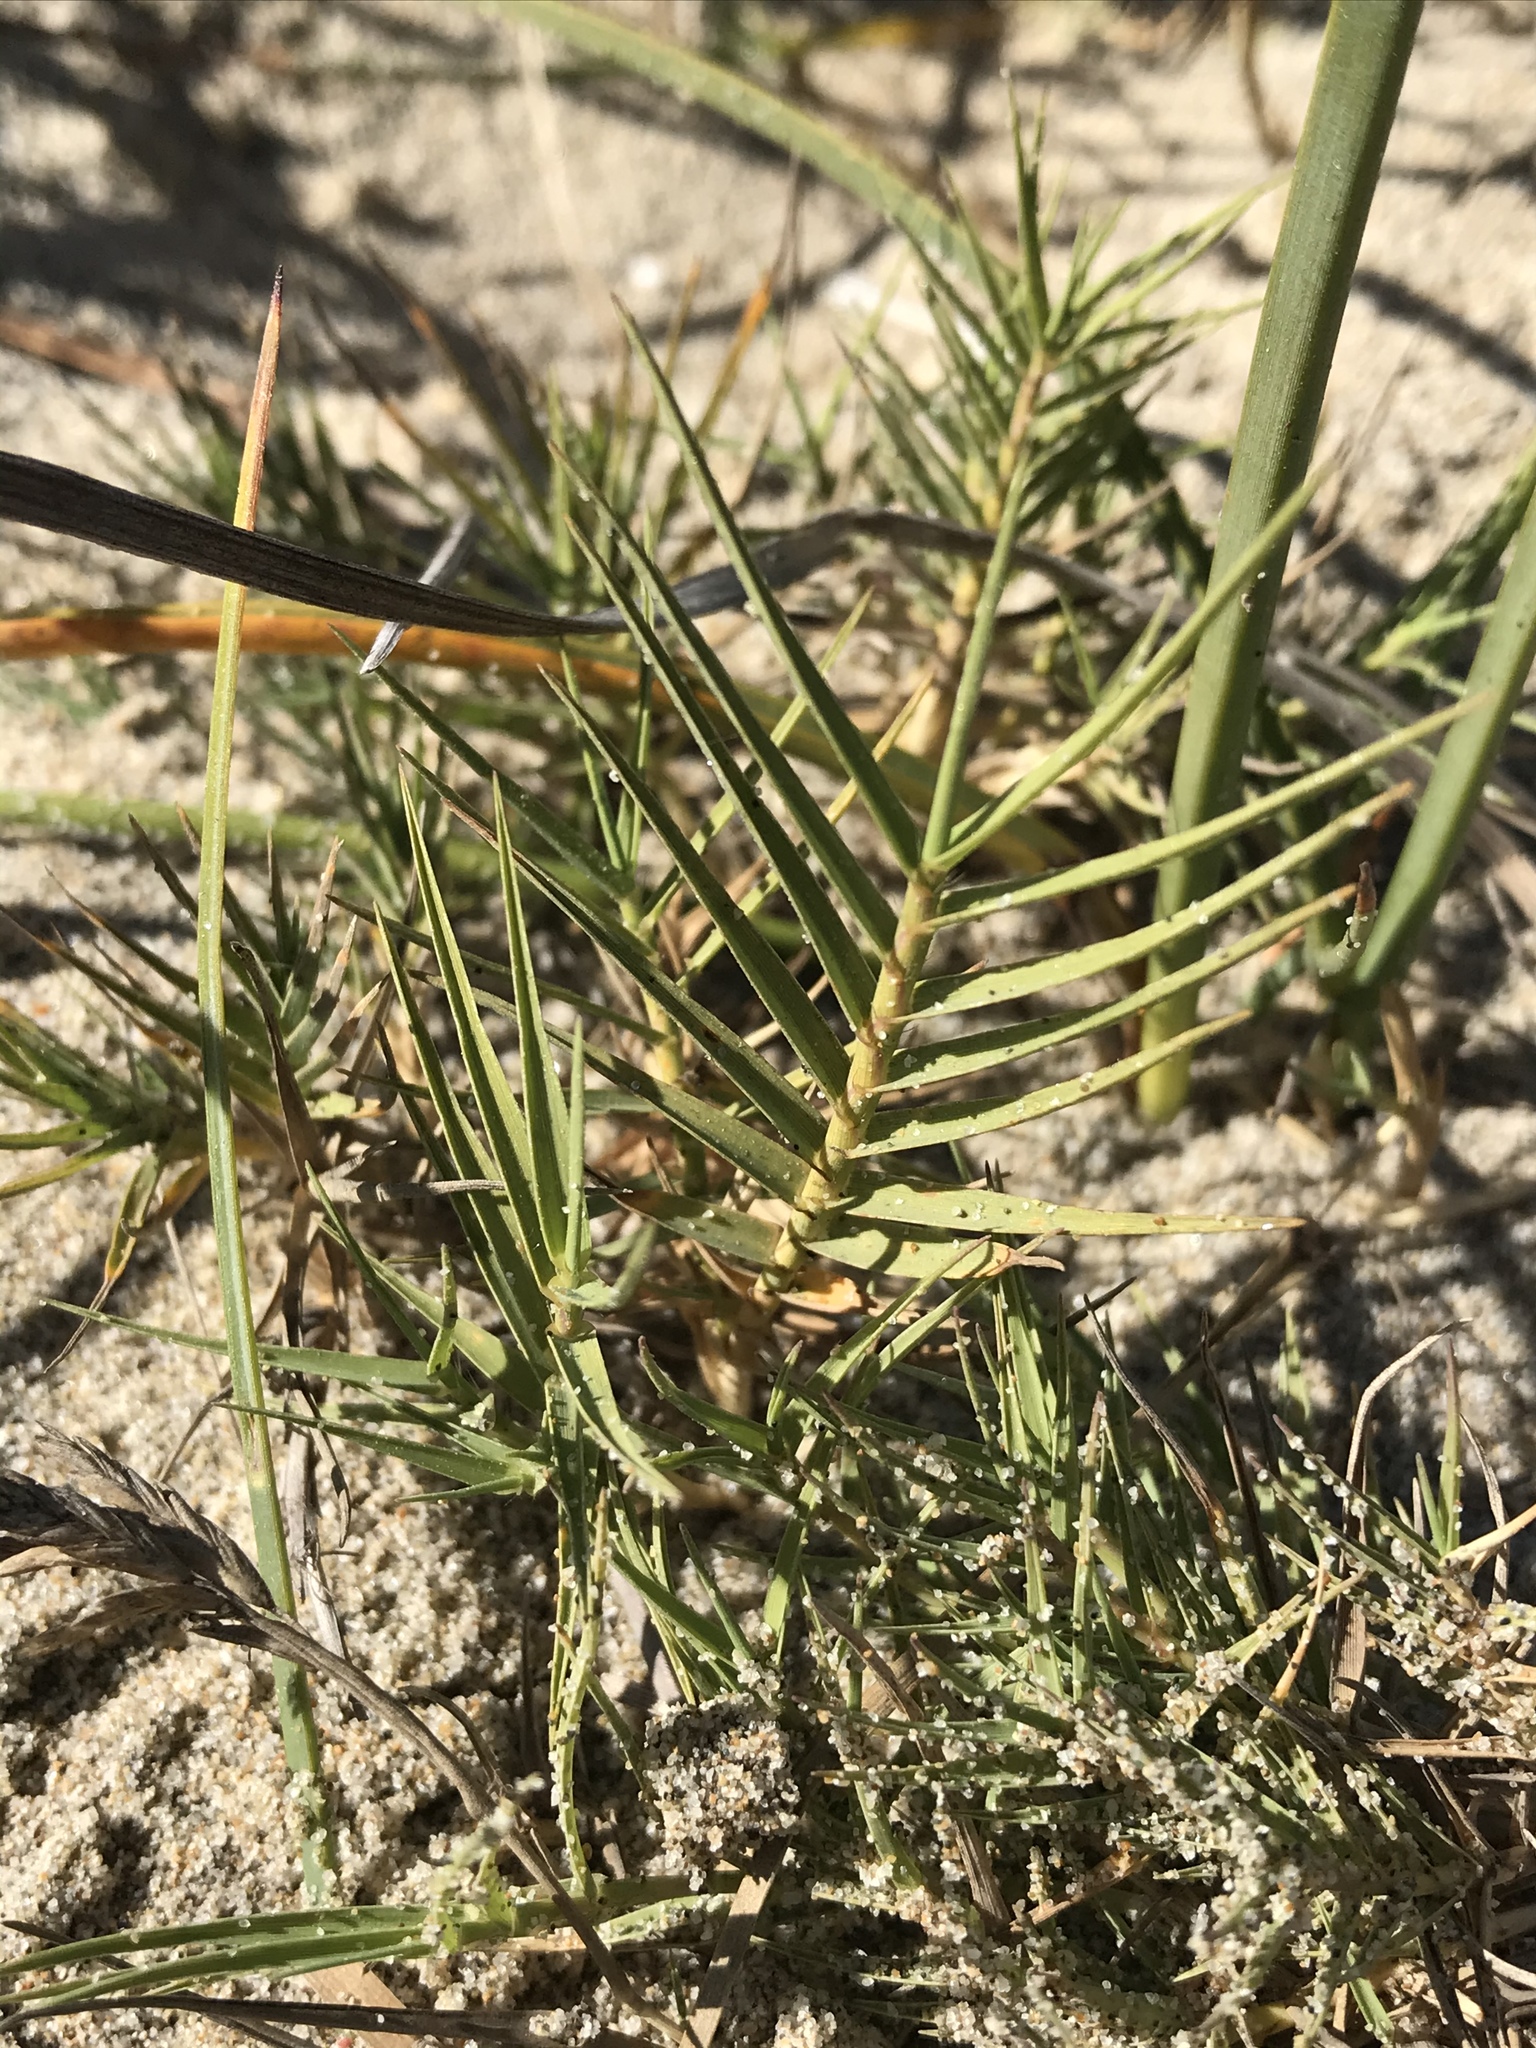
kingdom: Plantae
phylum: Tracheophyta
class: Liliopsida
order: Poales
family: Poaceae
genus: Distichlis
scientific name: Distichlis spicata
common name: Saltgrass
